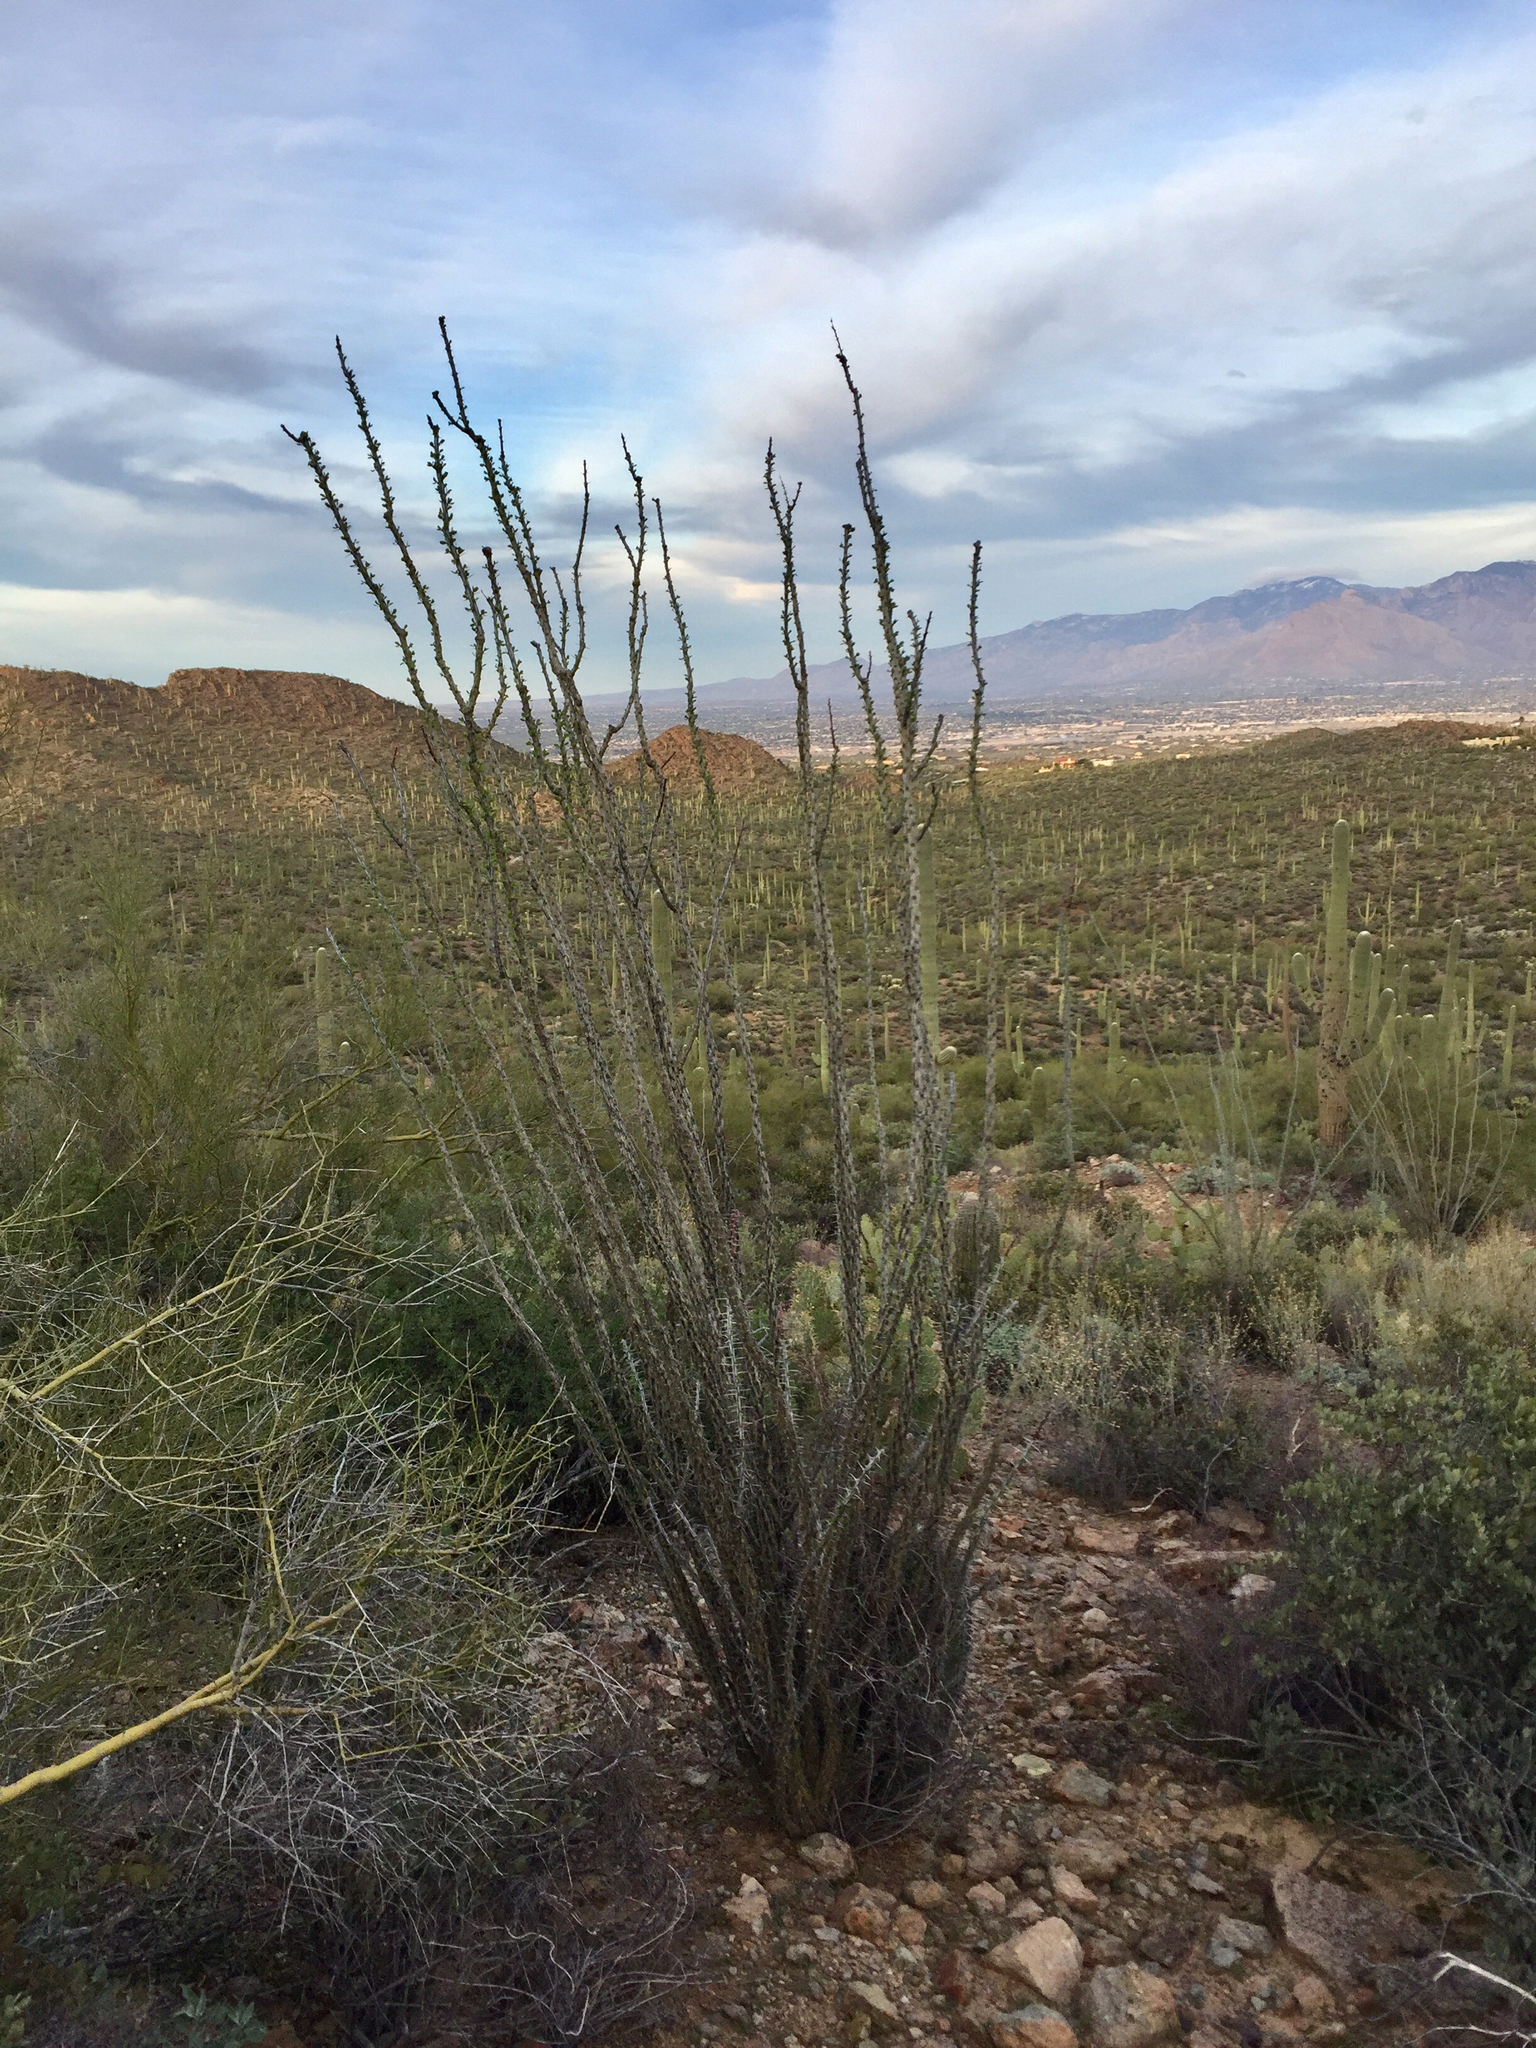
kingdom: Plantae
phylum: Tracheophyta
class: Magnoliopsida
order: Ericales
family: Fouquieriaceae
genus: Fouquieria
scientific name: Fouquieria splendens
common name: Vine-cactus
